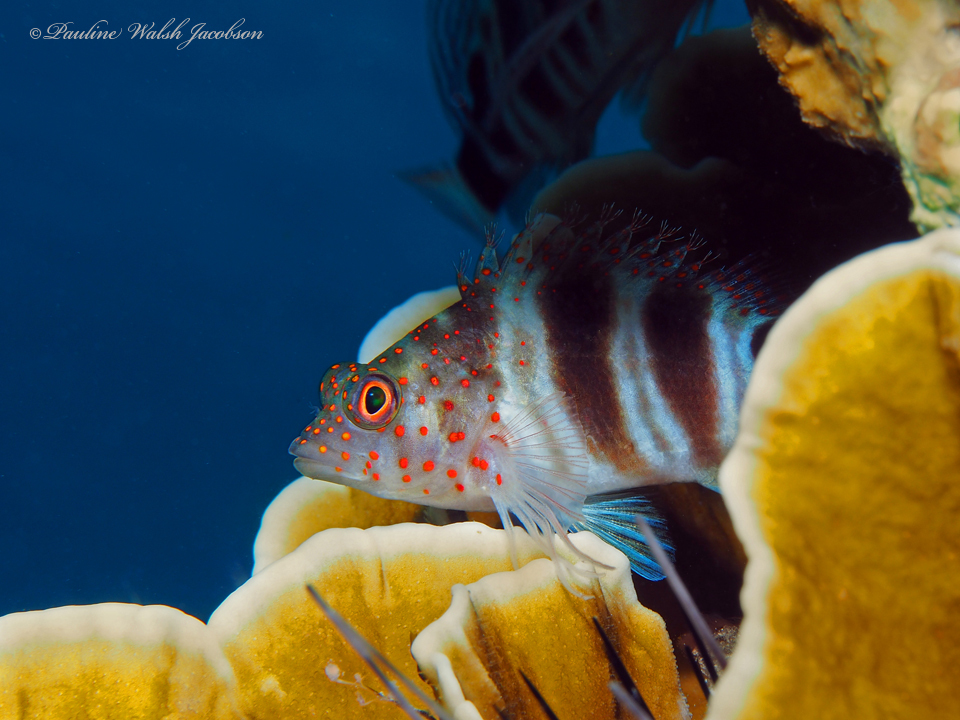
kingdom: Animalia
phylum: Chordata
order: Perciformes
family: Cirrhitidae
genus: Amblycirrhitus
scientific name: Amblycirrhitus pinos
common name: Redspotted hawkfish
